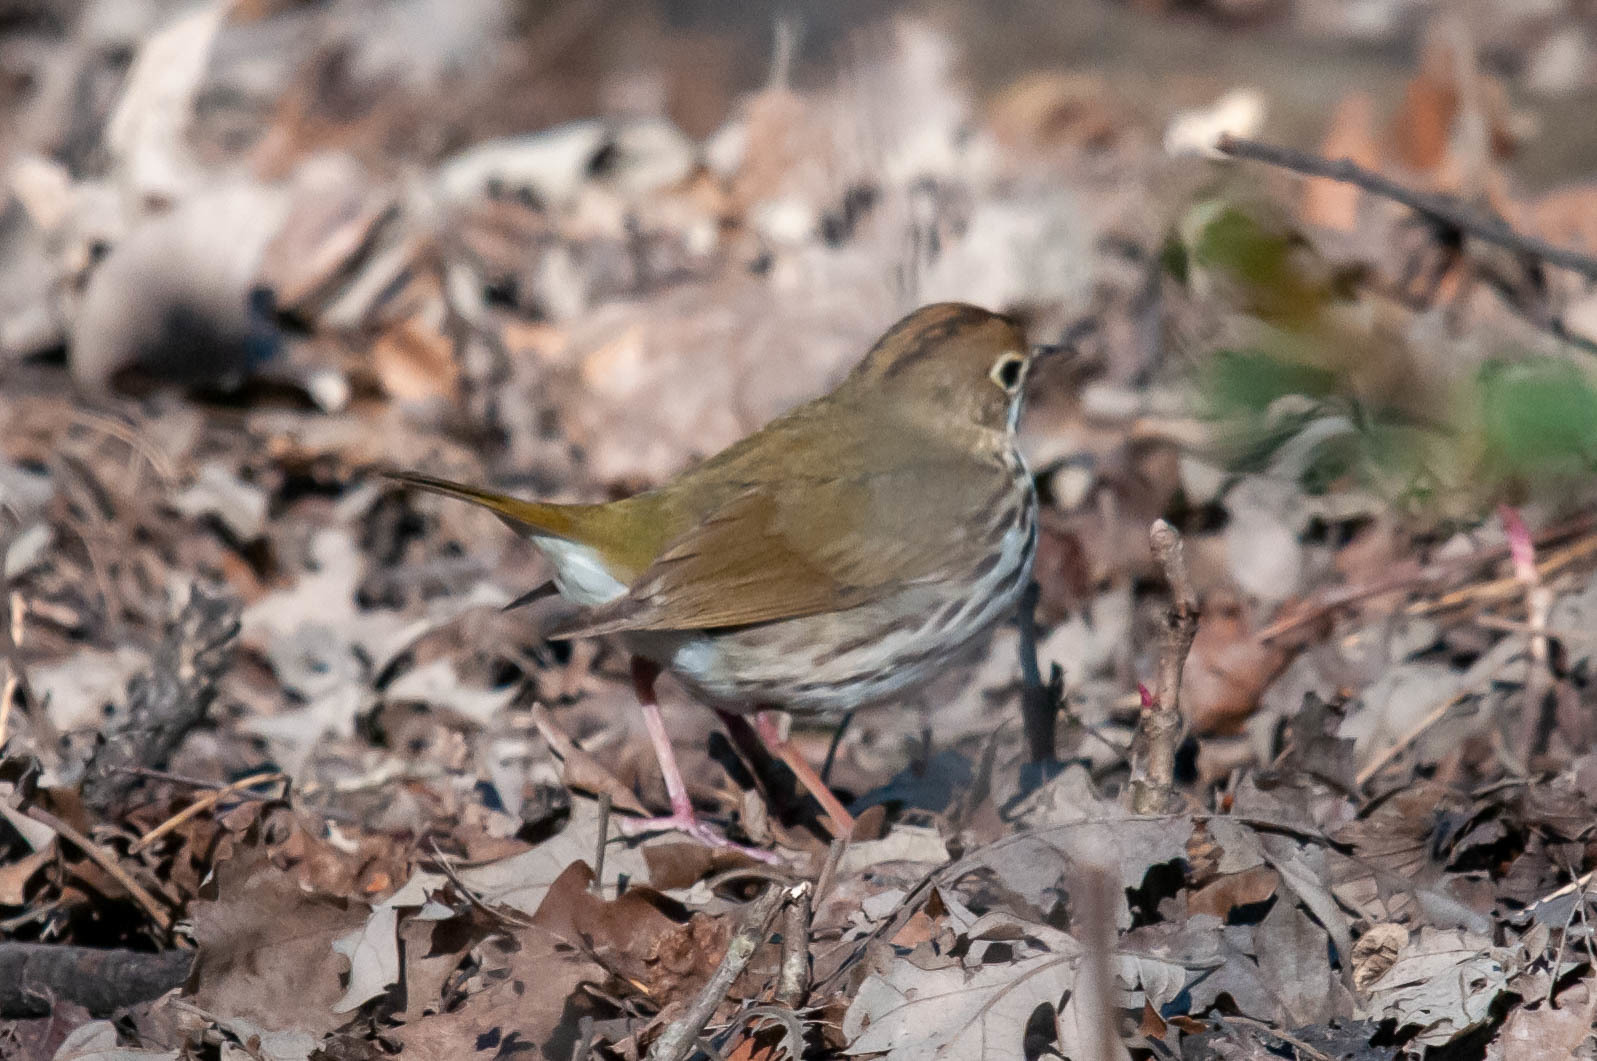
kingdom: Animalia
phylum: Chordata
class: Aves
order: Passeriformes
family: Parulidae
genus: Seiurus
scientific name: Seiurus aurocapilla
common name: Ovenbird
